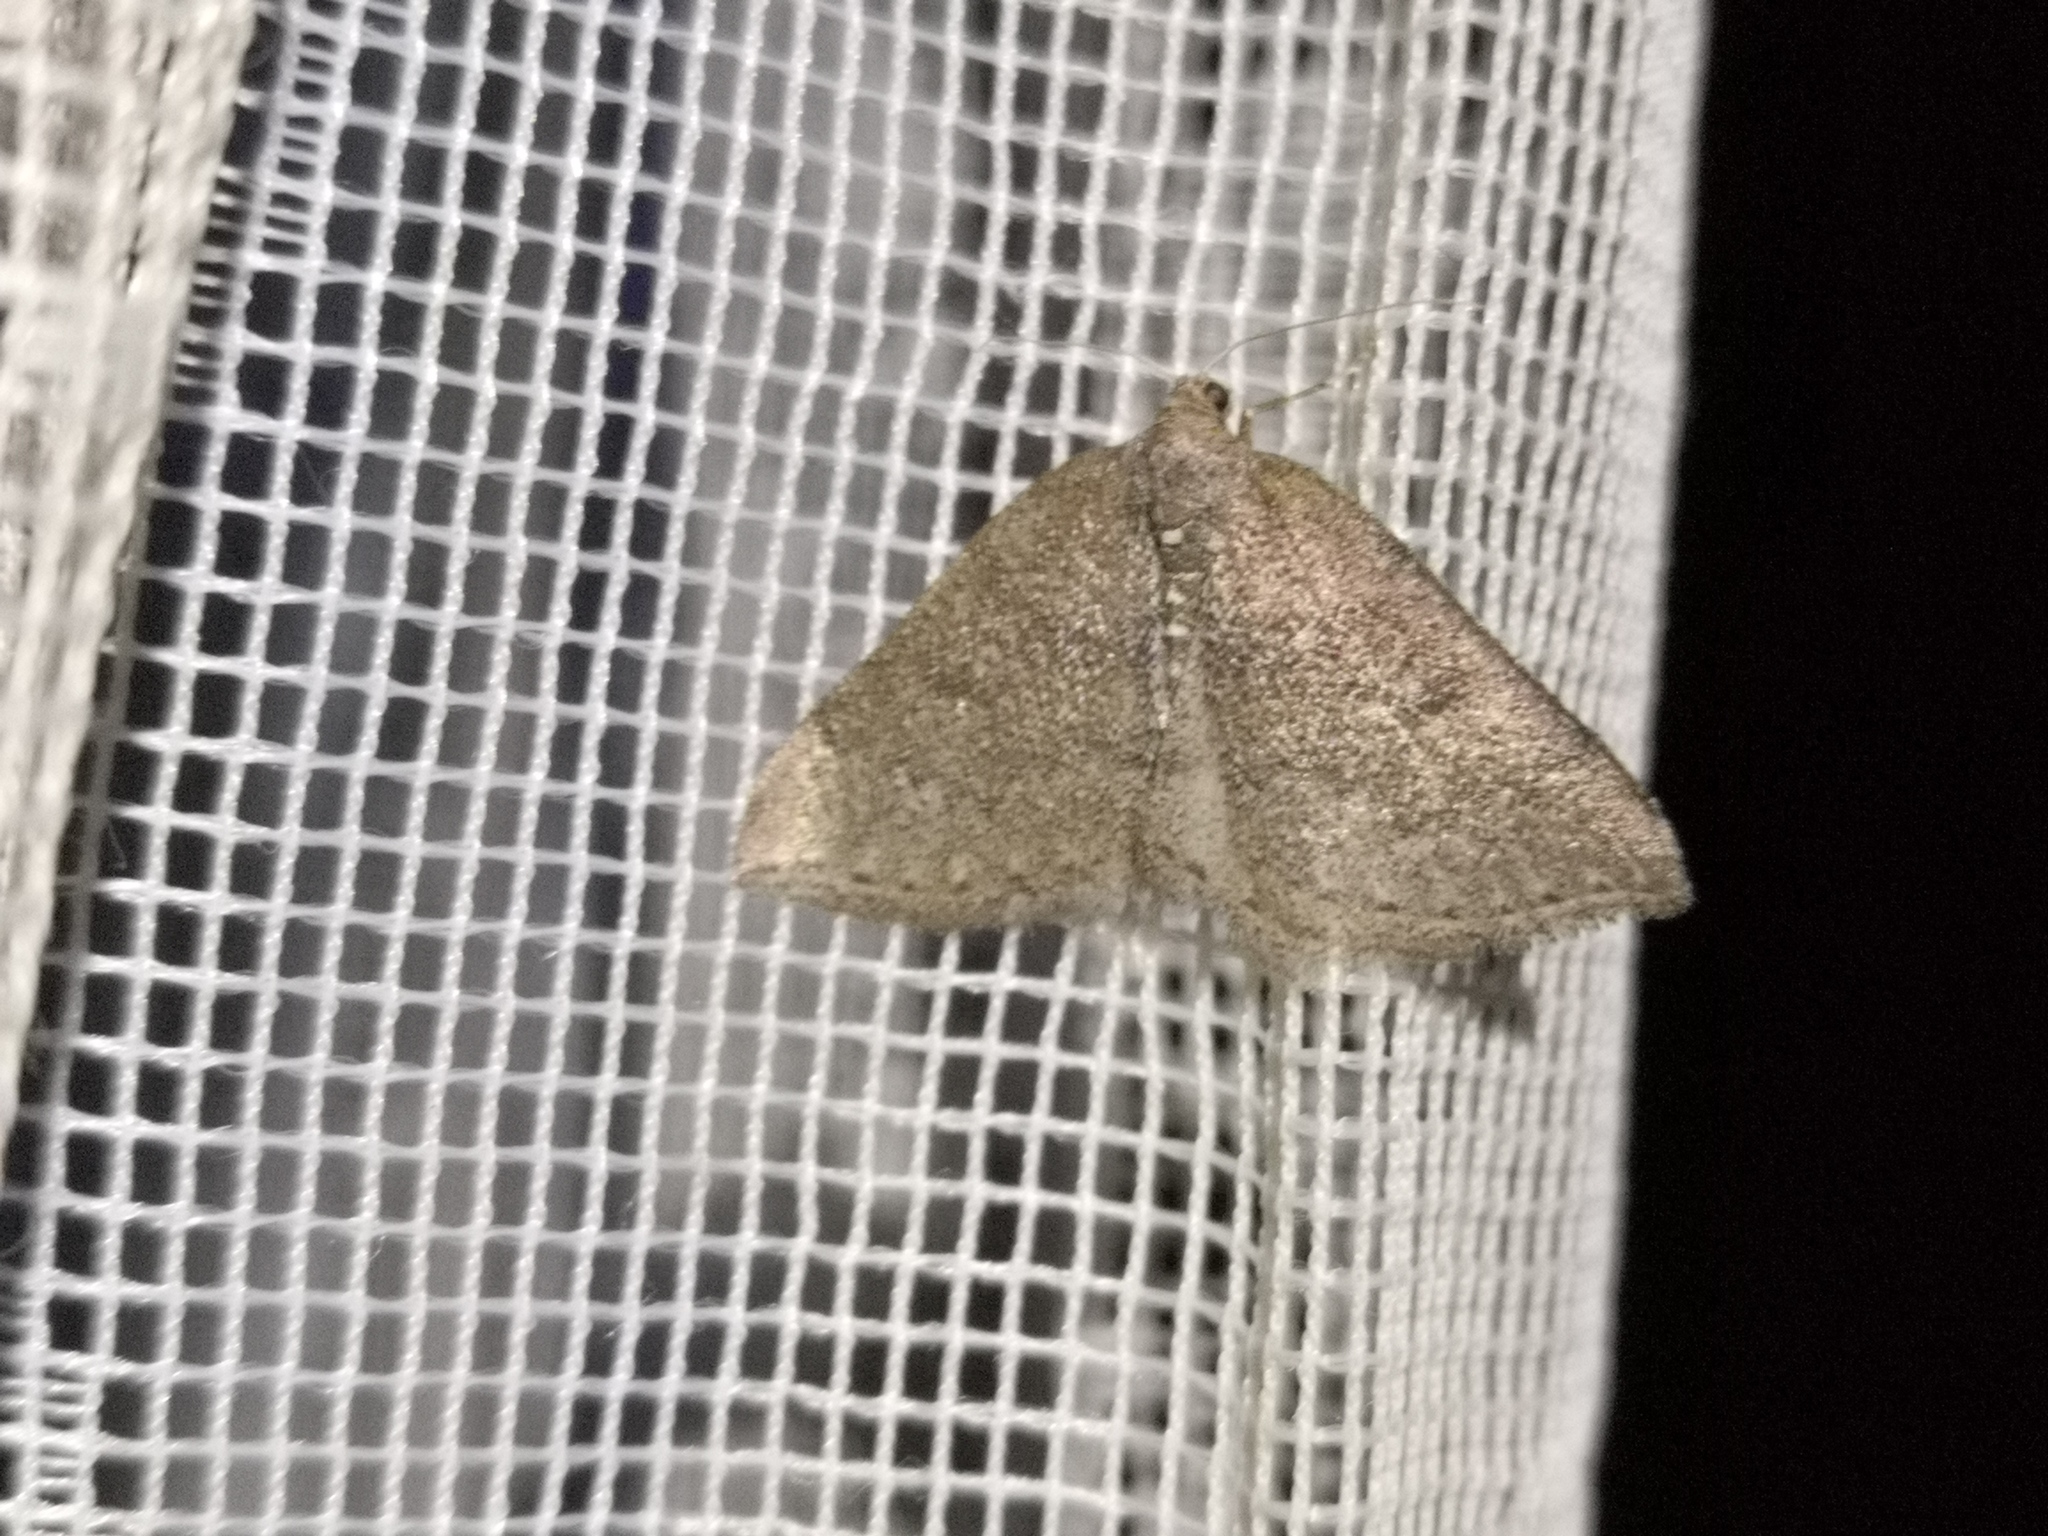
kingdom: Animalia
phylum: Arthropoda
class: Insecta
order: Lepidoptera
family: Geometridae
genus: Aleucis
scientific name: Aleucis distinctata
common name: Sloe carpet
